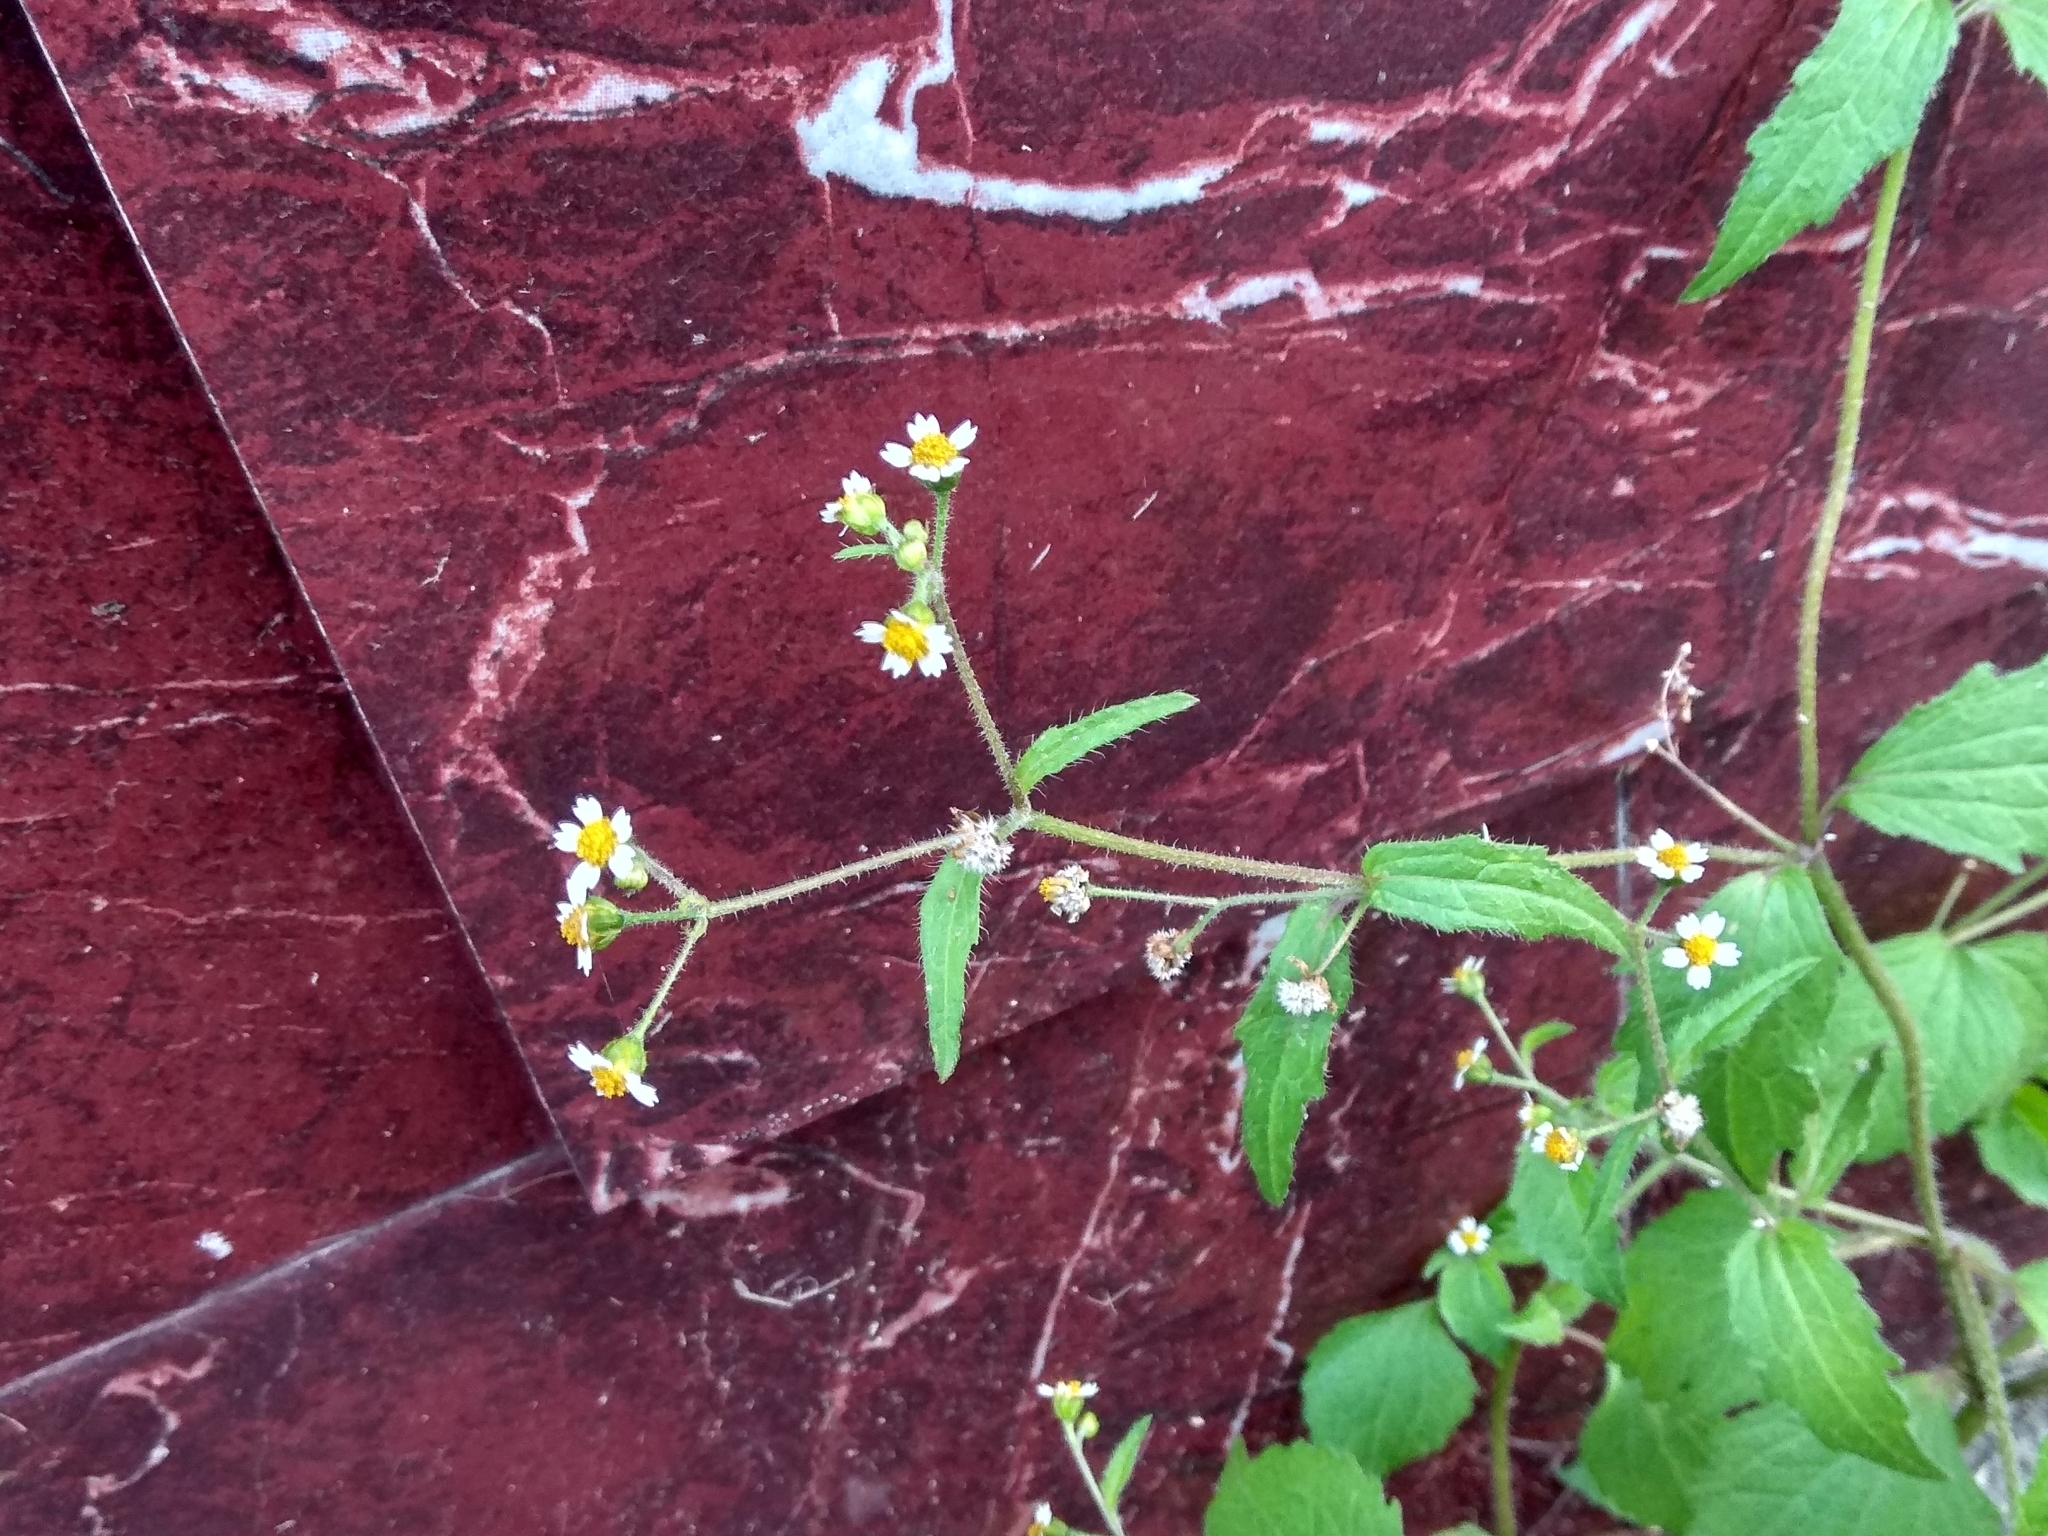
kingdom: Plantae
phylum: Tracheophyta
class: Magnoliopsida
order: Asterales
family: Asteraceae
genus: Galinsoga
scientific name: Galinsoga quadriradiata
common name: Shaggy soldier
